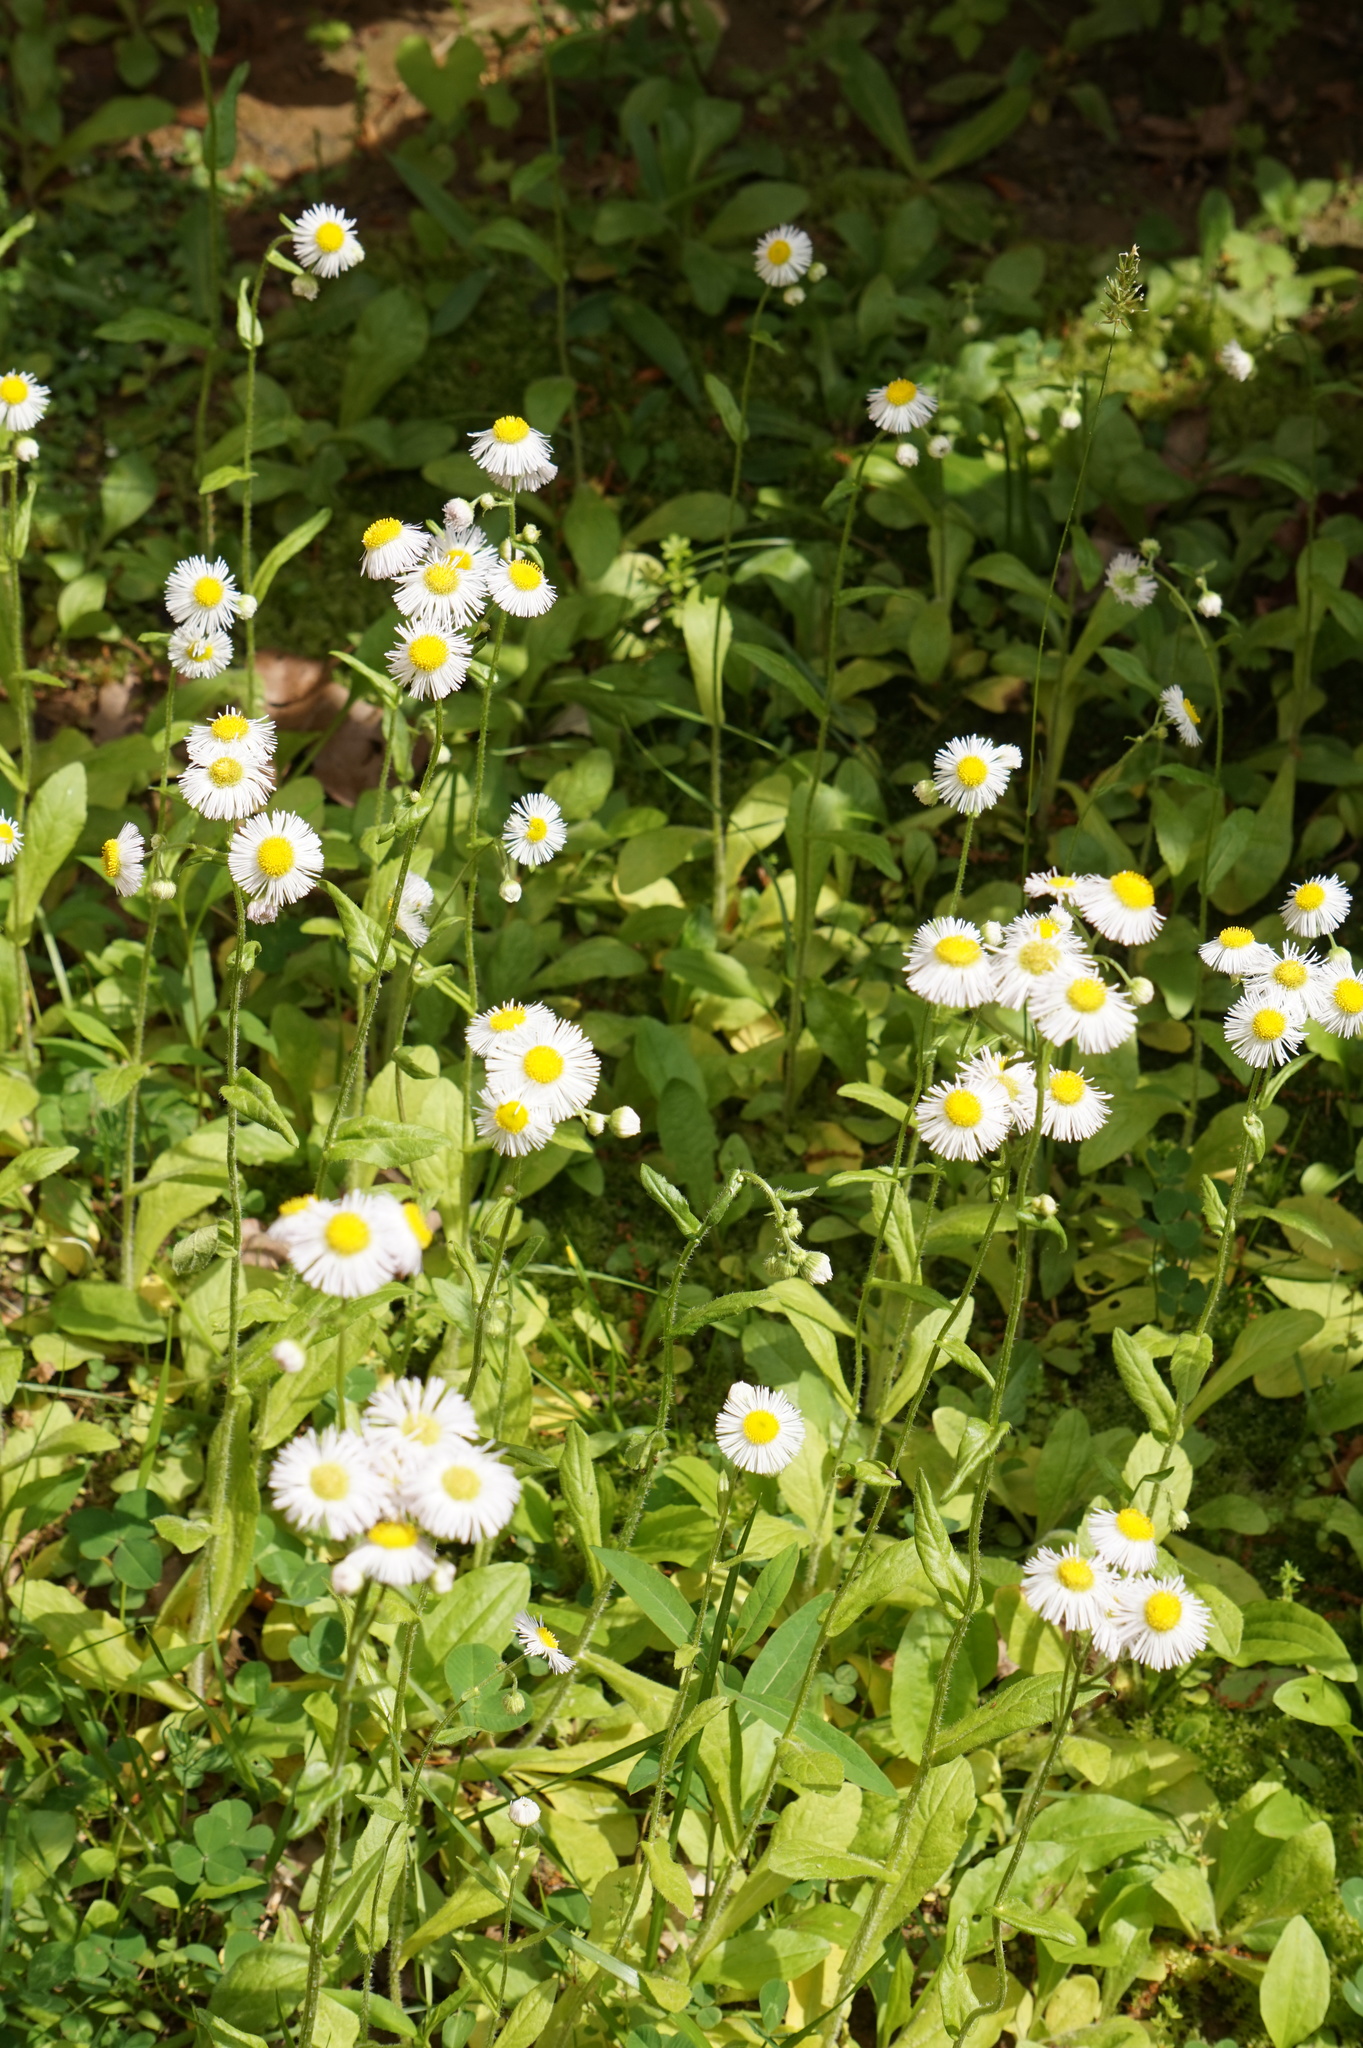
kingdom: Plantae
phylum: Tracheophyta
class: Magnoliopsida
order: Asterales
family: Asteraceae
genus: Erigeron
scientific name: Erigeron philadelphicus
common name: Robin's-plantain
